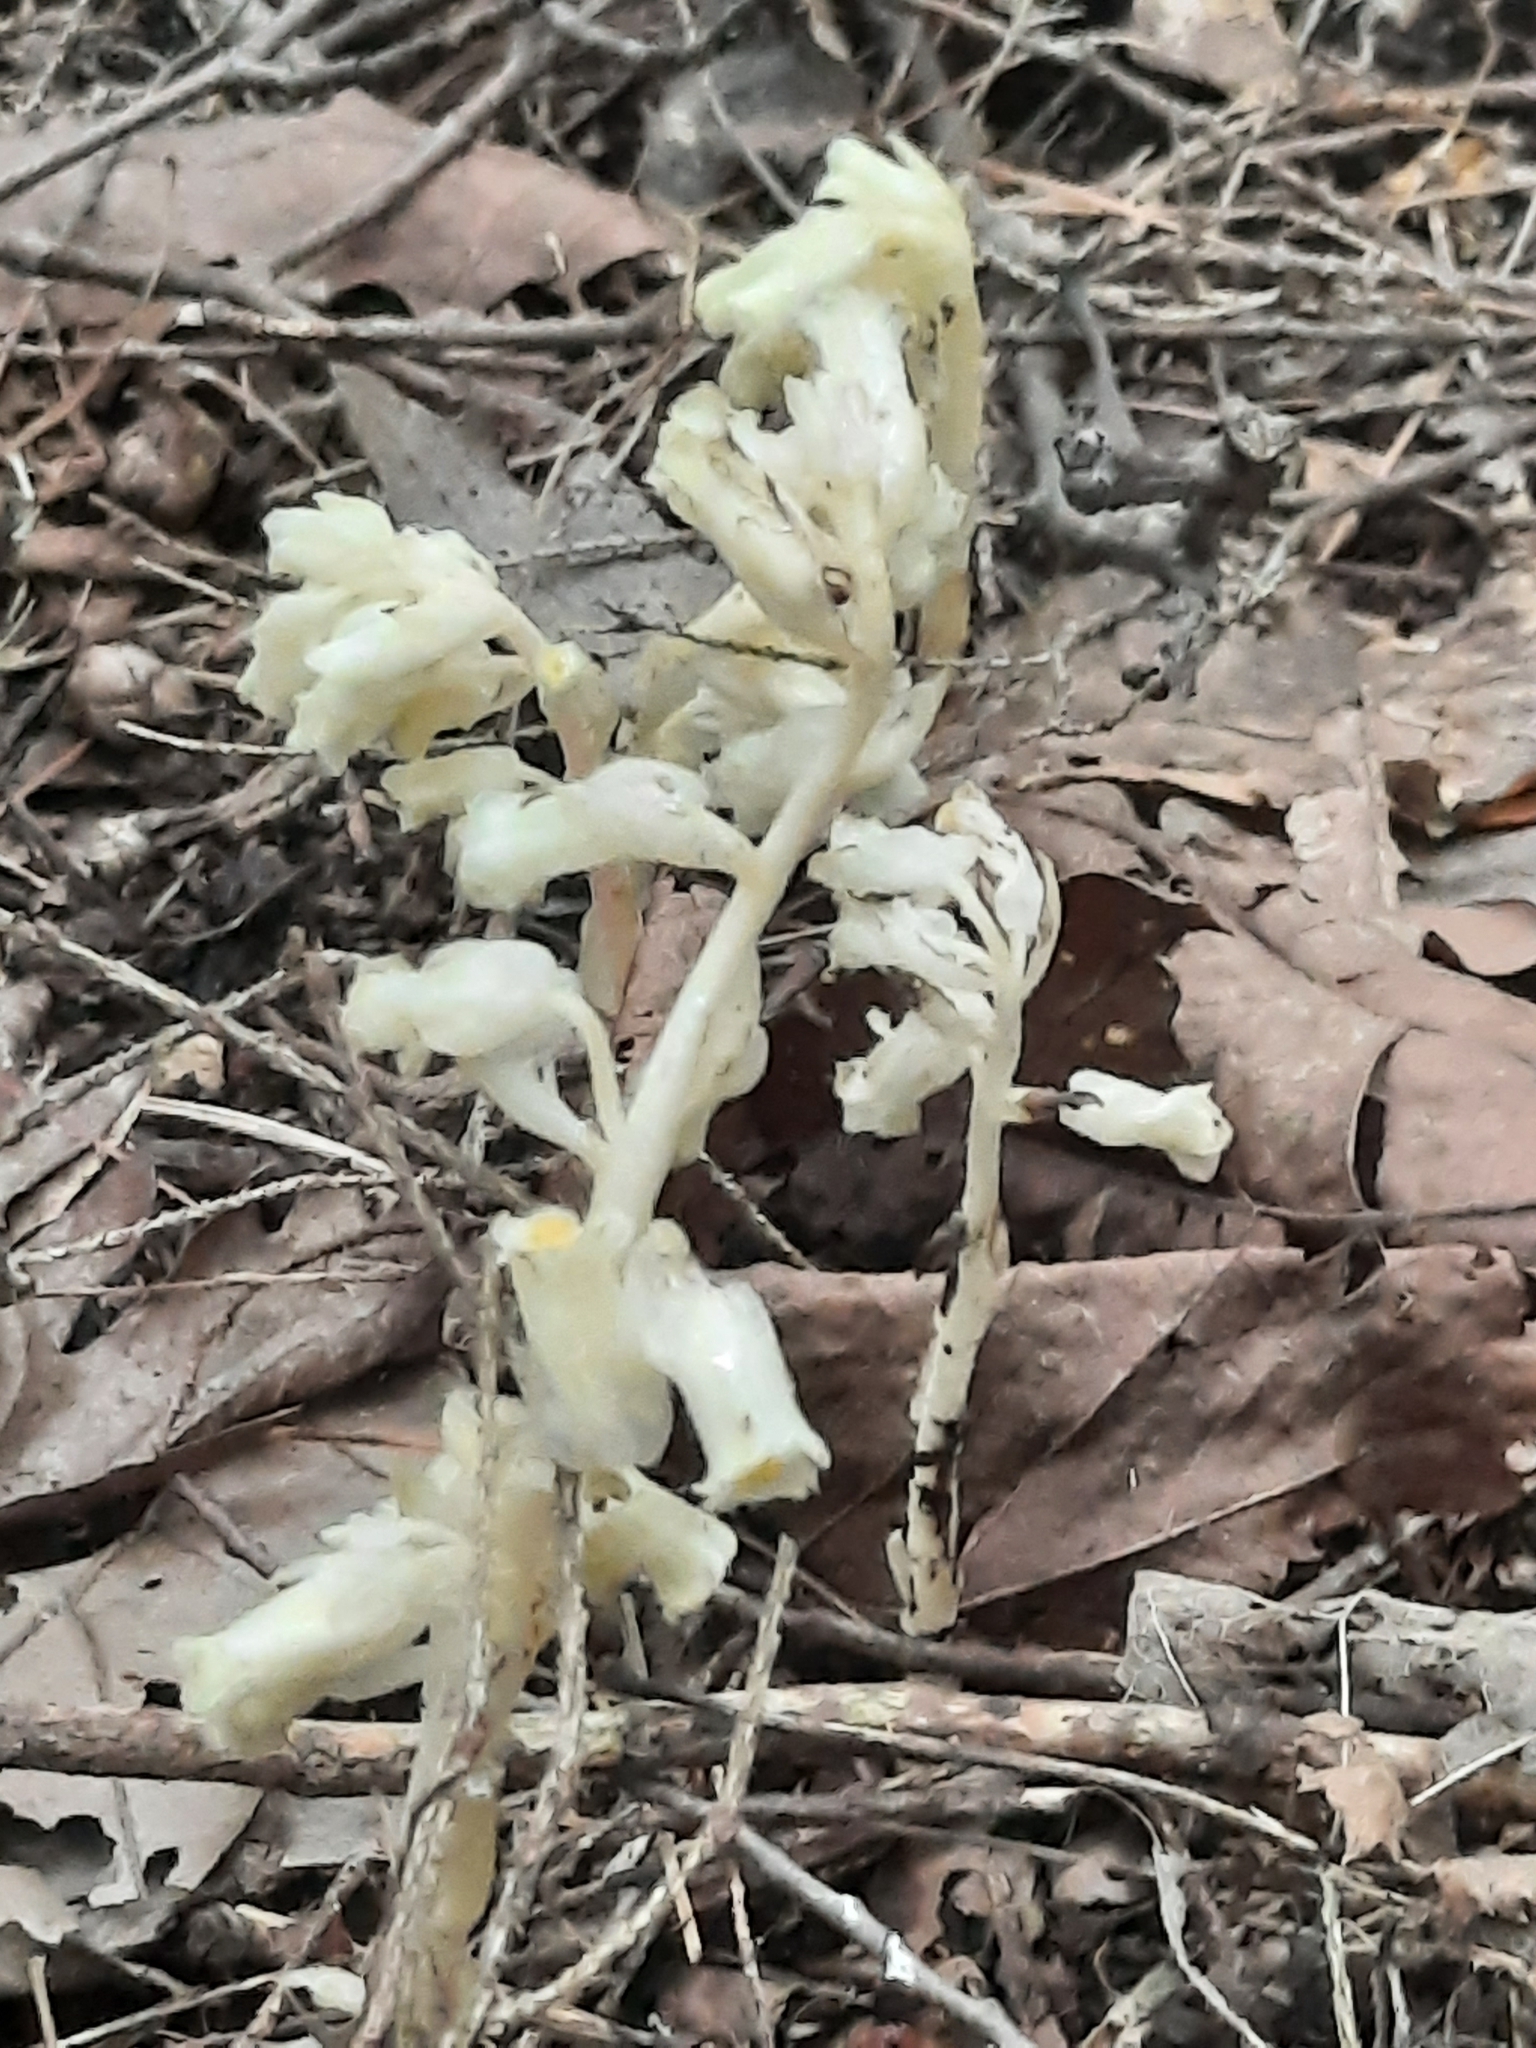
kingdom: Plantae
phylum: Tracheophyta
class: Magnoliopsida
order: Ericales
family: Ericaceae
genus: Hypopitys
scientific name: Hypopitys monotropa
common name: Yellow bird's-nest
